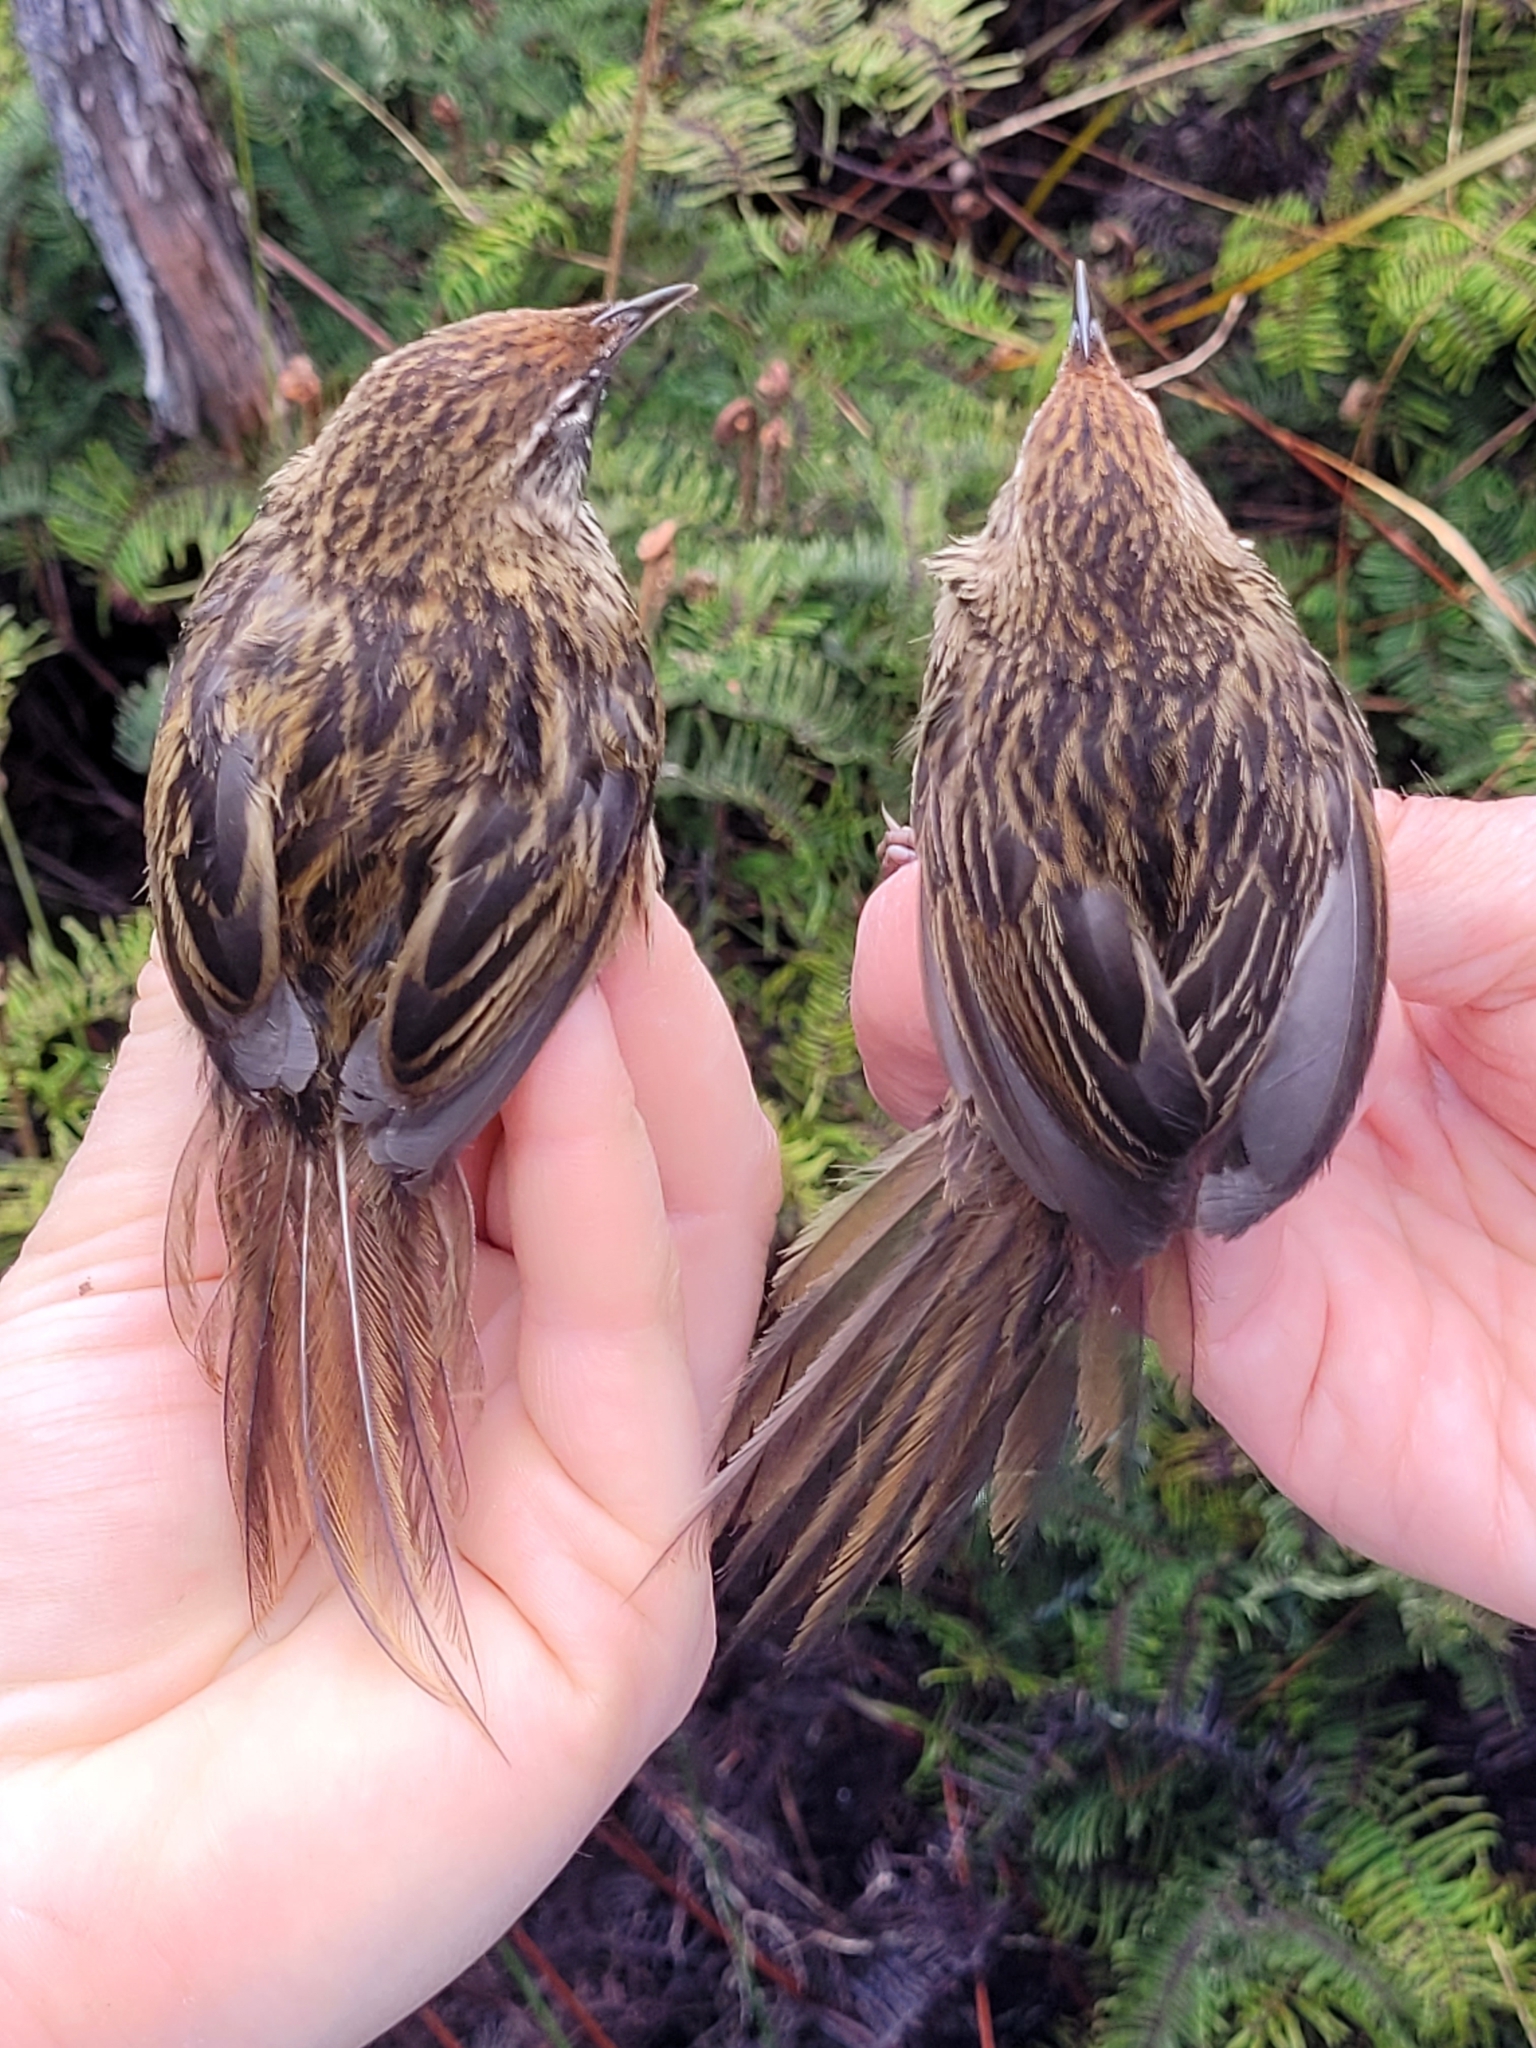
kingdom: Animalia
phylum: Chordata
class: Aves
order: Passeriformes
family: Locustellidae
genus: Poodytes
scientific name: Poodytes punctatus
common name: New zealand fernbird
